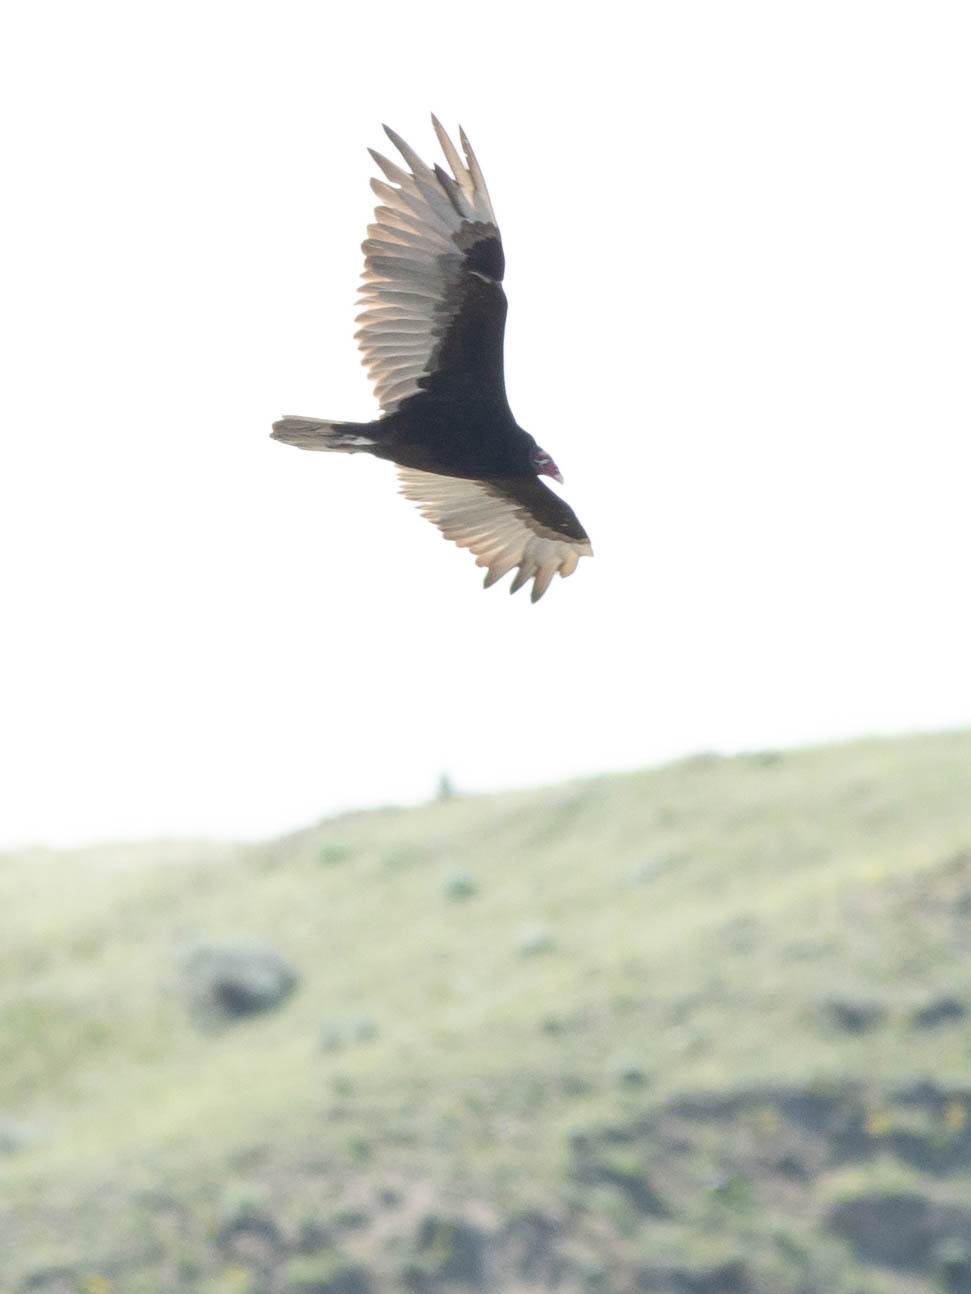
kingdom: Animalia
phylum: Chordata
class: Aves
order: Accipitriformes
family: Cathartidae
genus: Cathartes
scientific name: Cathartes aura
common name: Turkey vulture
